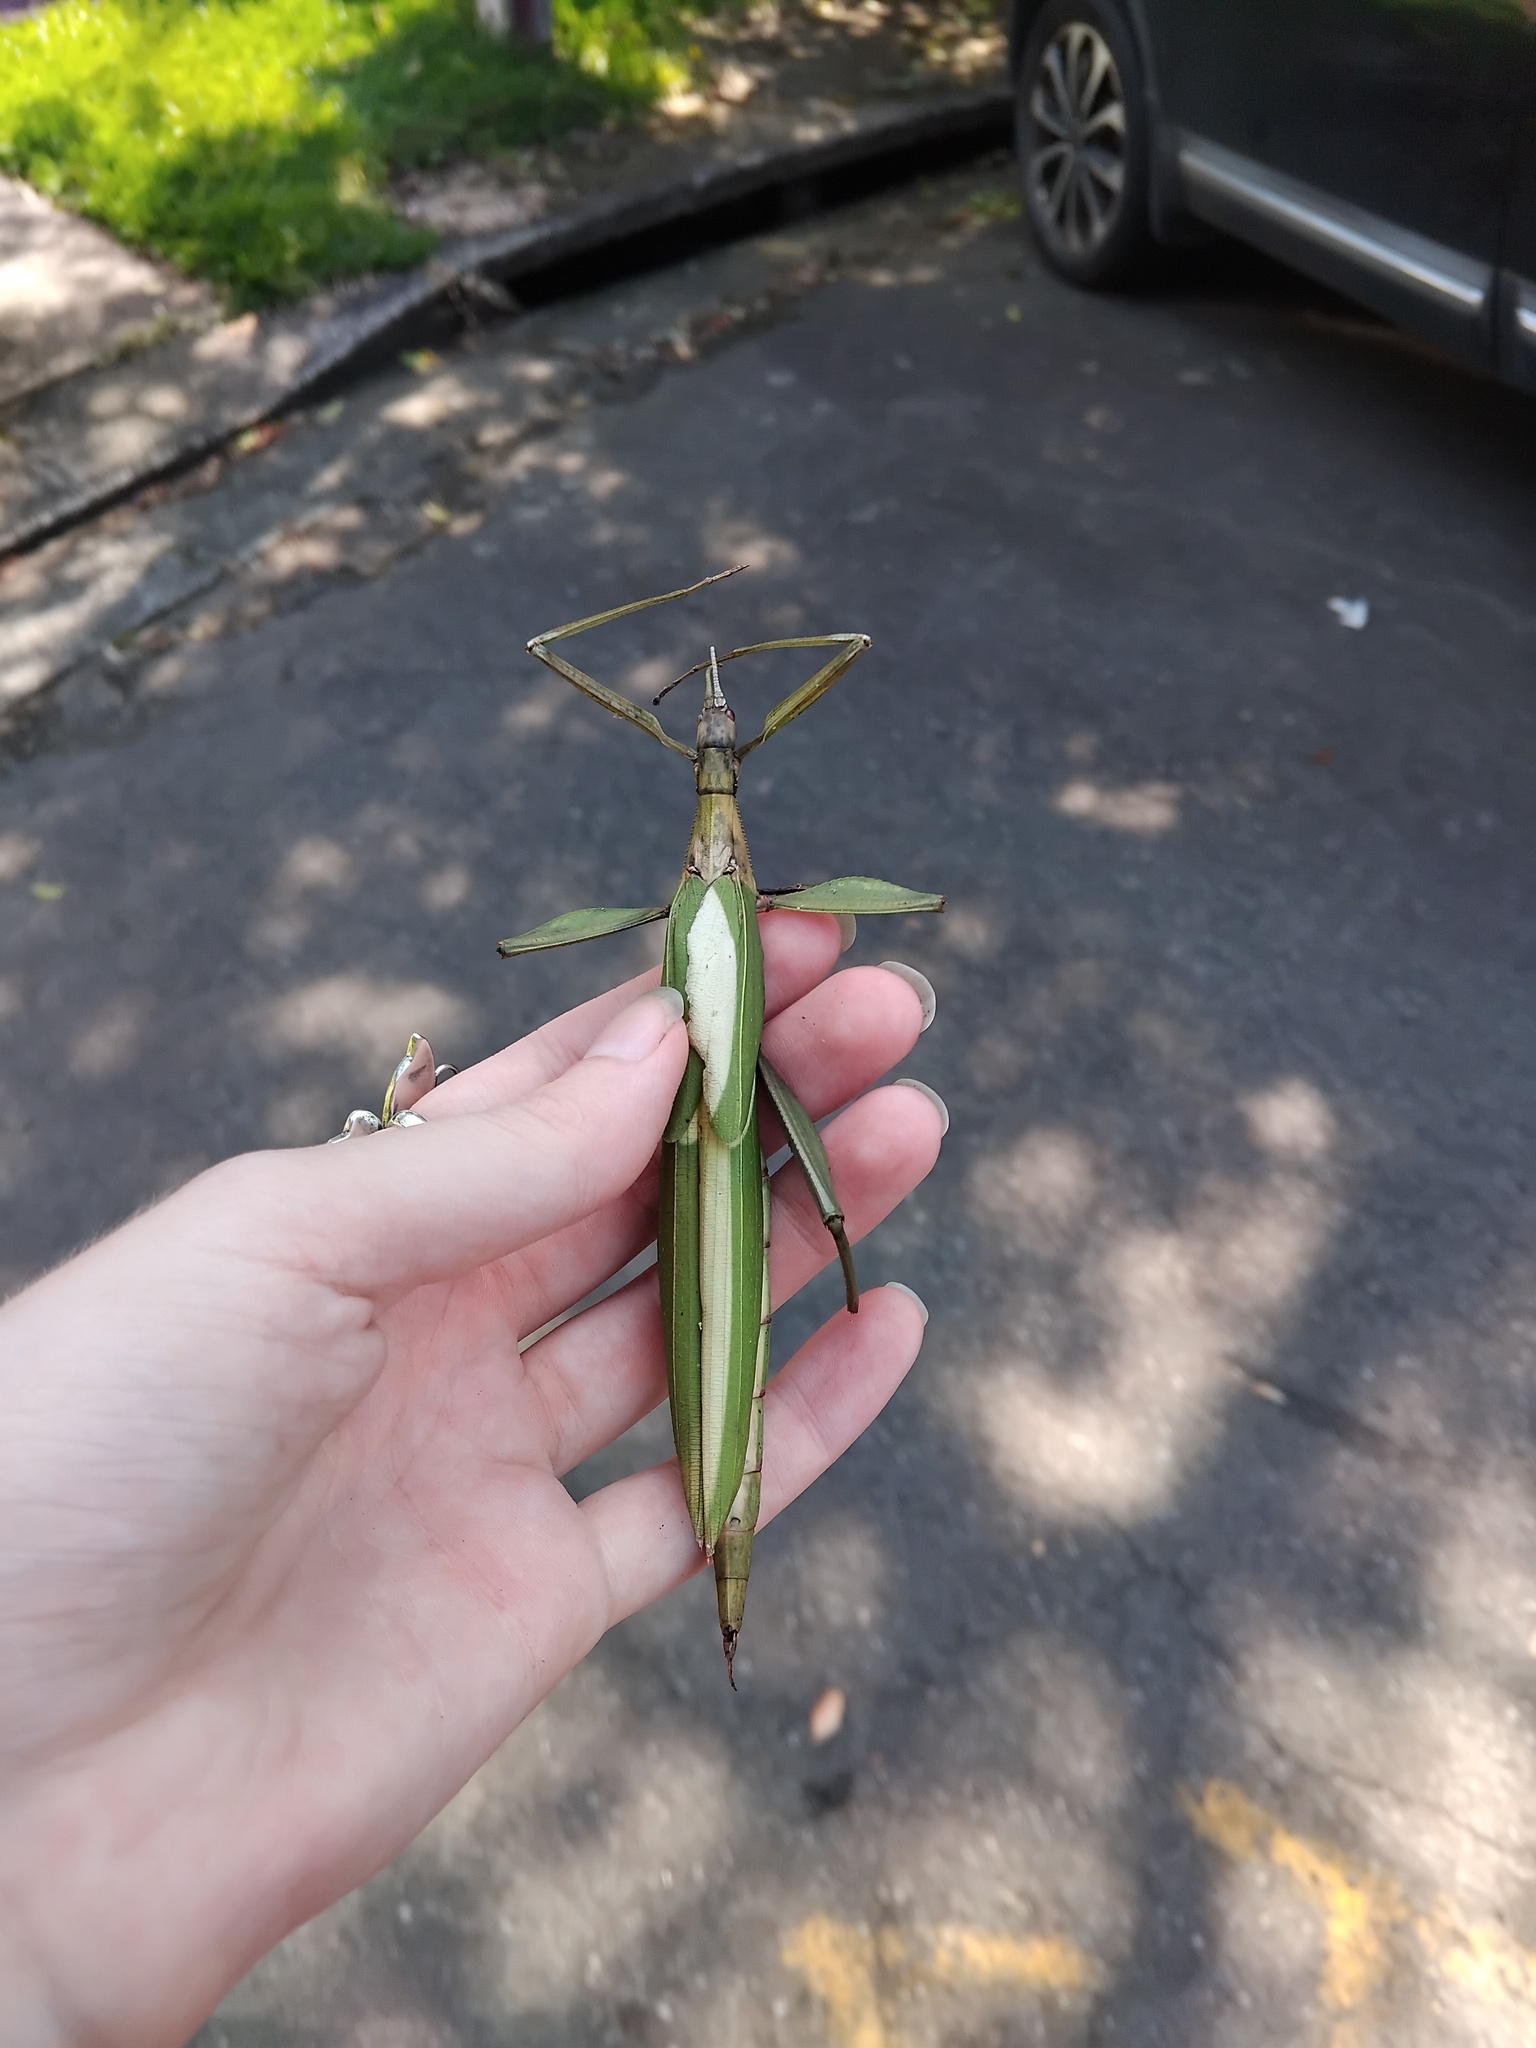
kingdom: Animalia
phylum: Arthropoda
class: Insecta
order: Phasmida
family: Phasmatidae
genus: Tropidoderus
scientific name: Tropidoderus childrenii
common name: Children's stick insect
